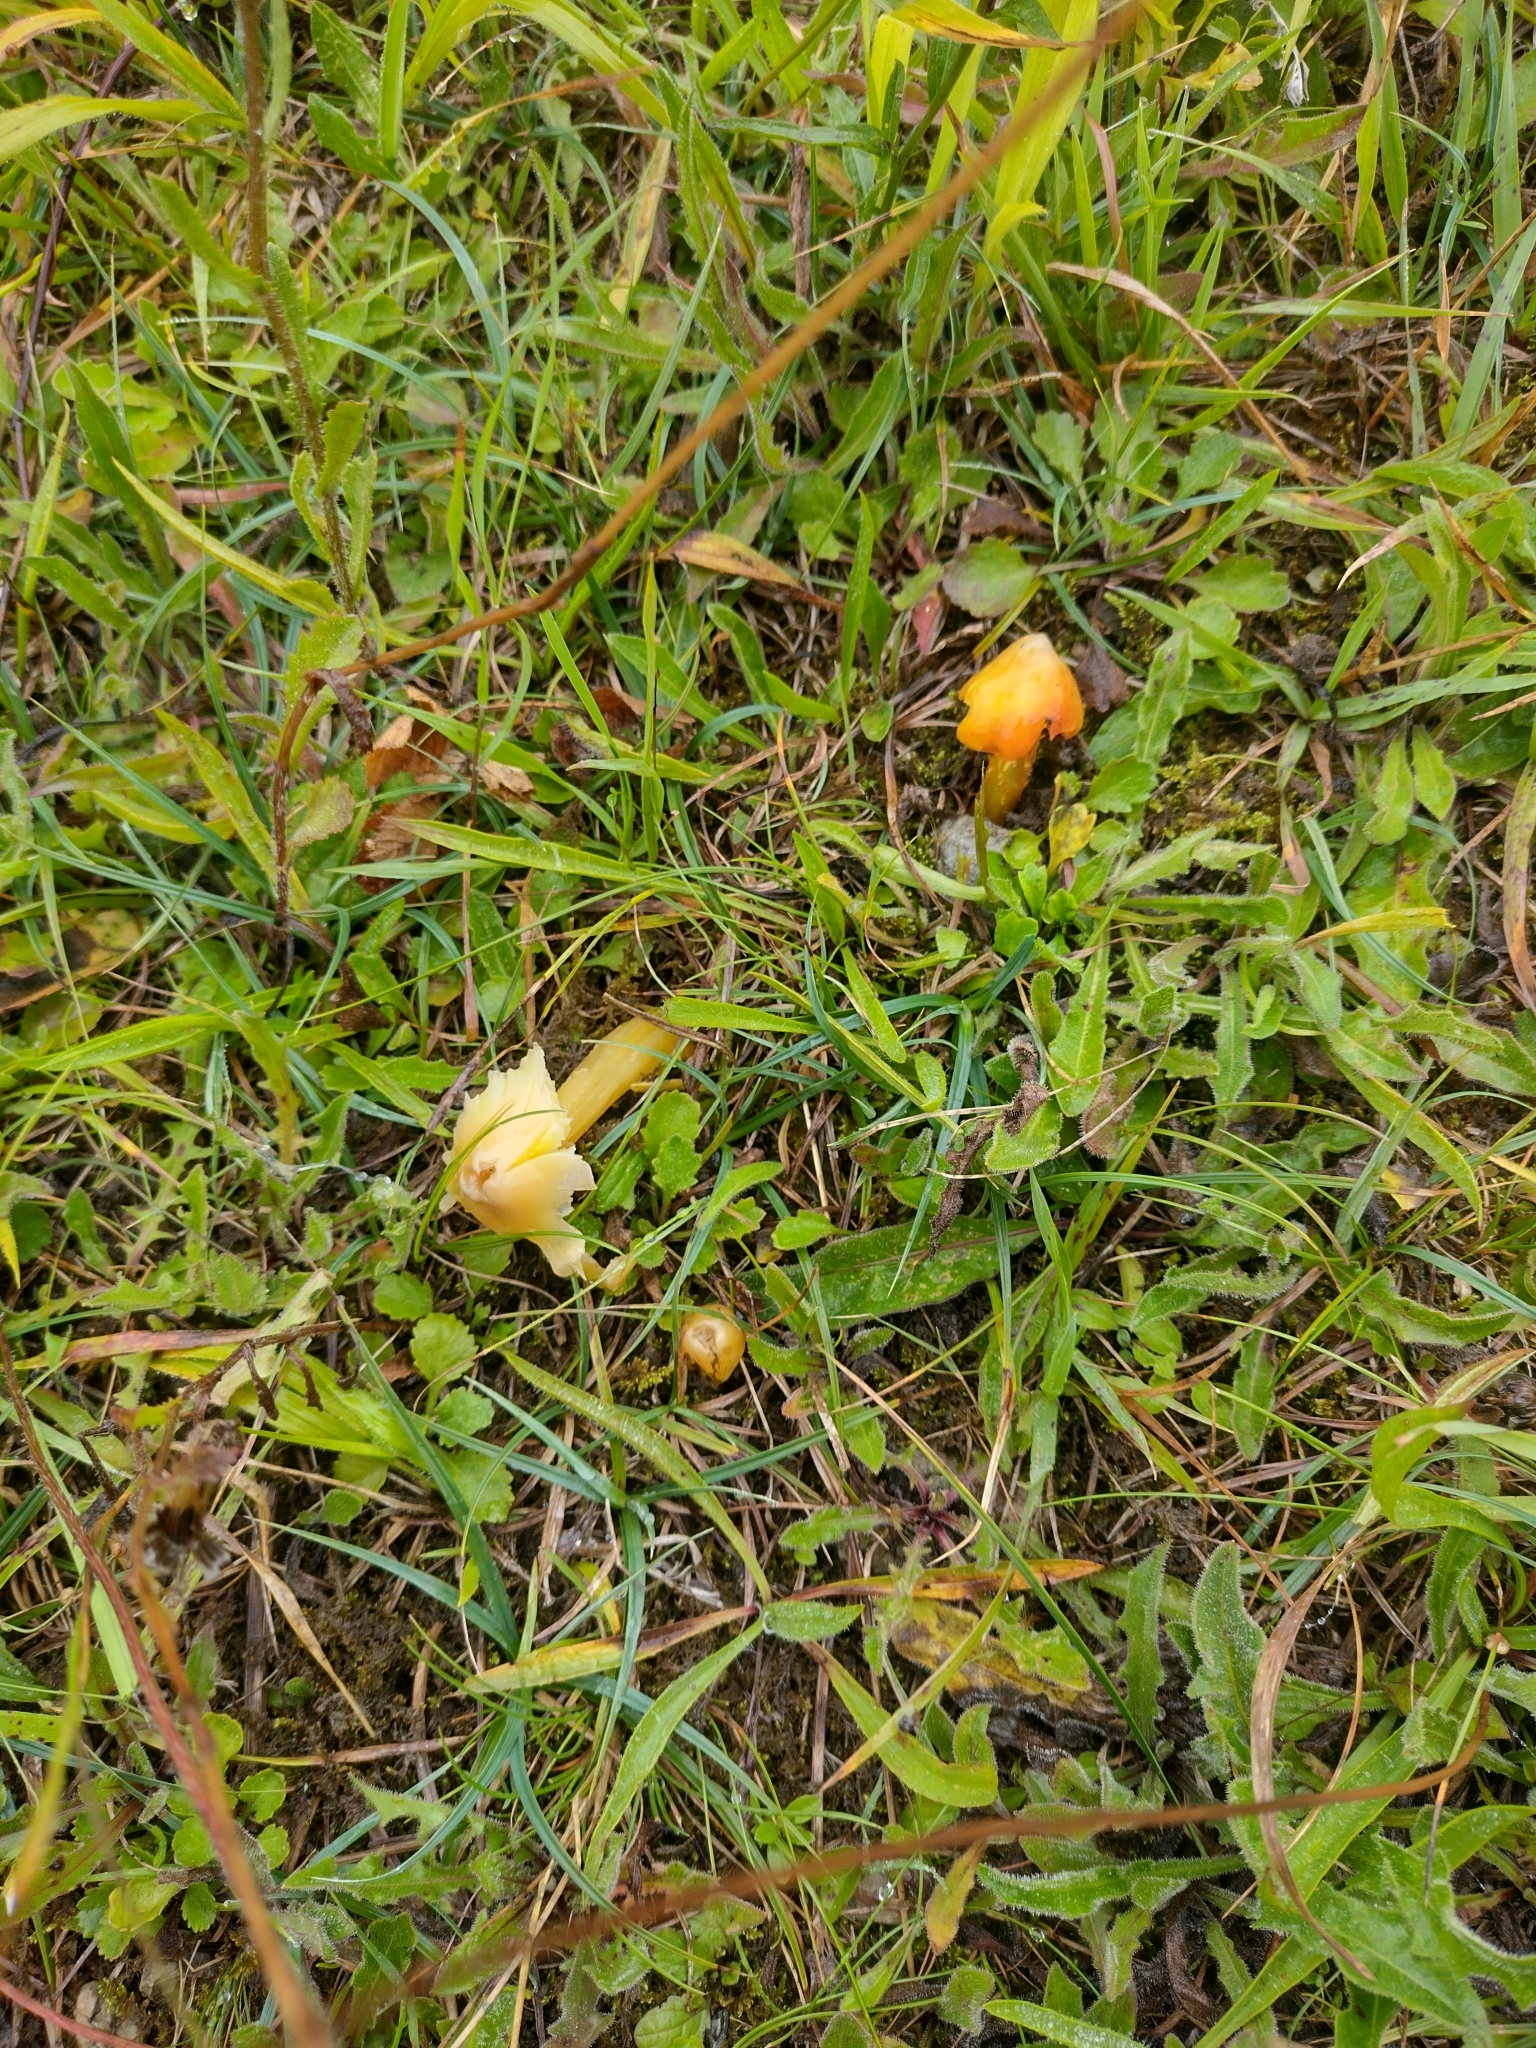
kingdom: Fungi
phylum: Basidiomycota
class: Agaricomycetes
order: Agaricales
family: Hygrophoraceae
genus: Hygrocybe
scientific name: Hygrocybe acutoconica
